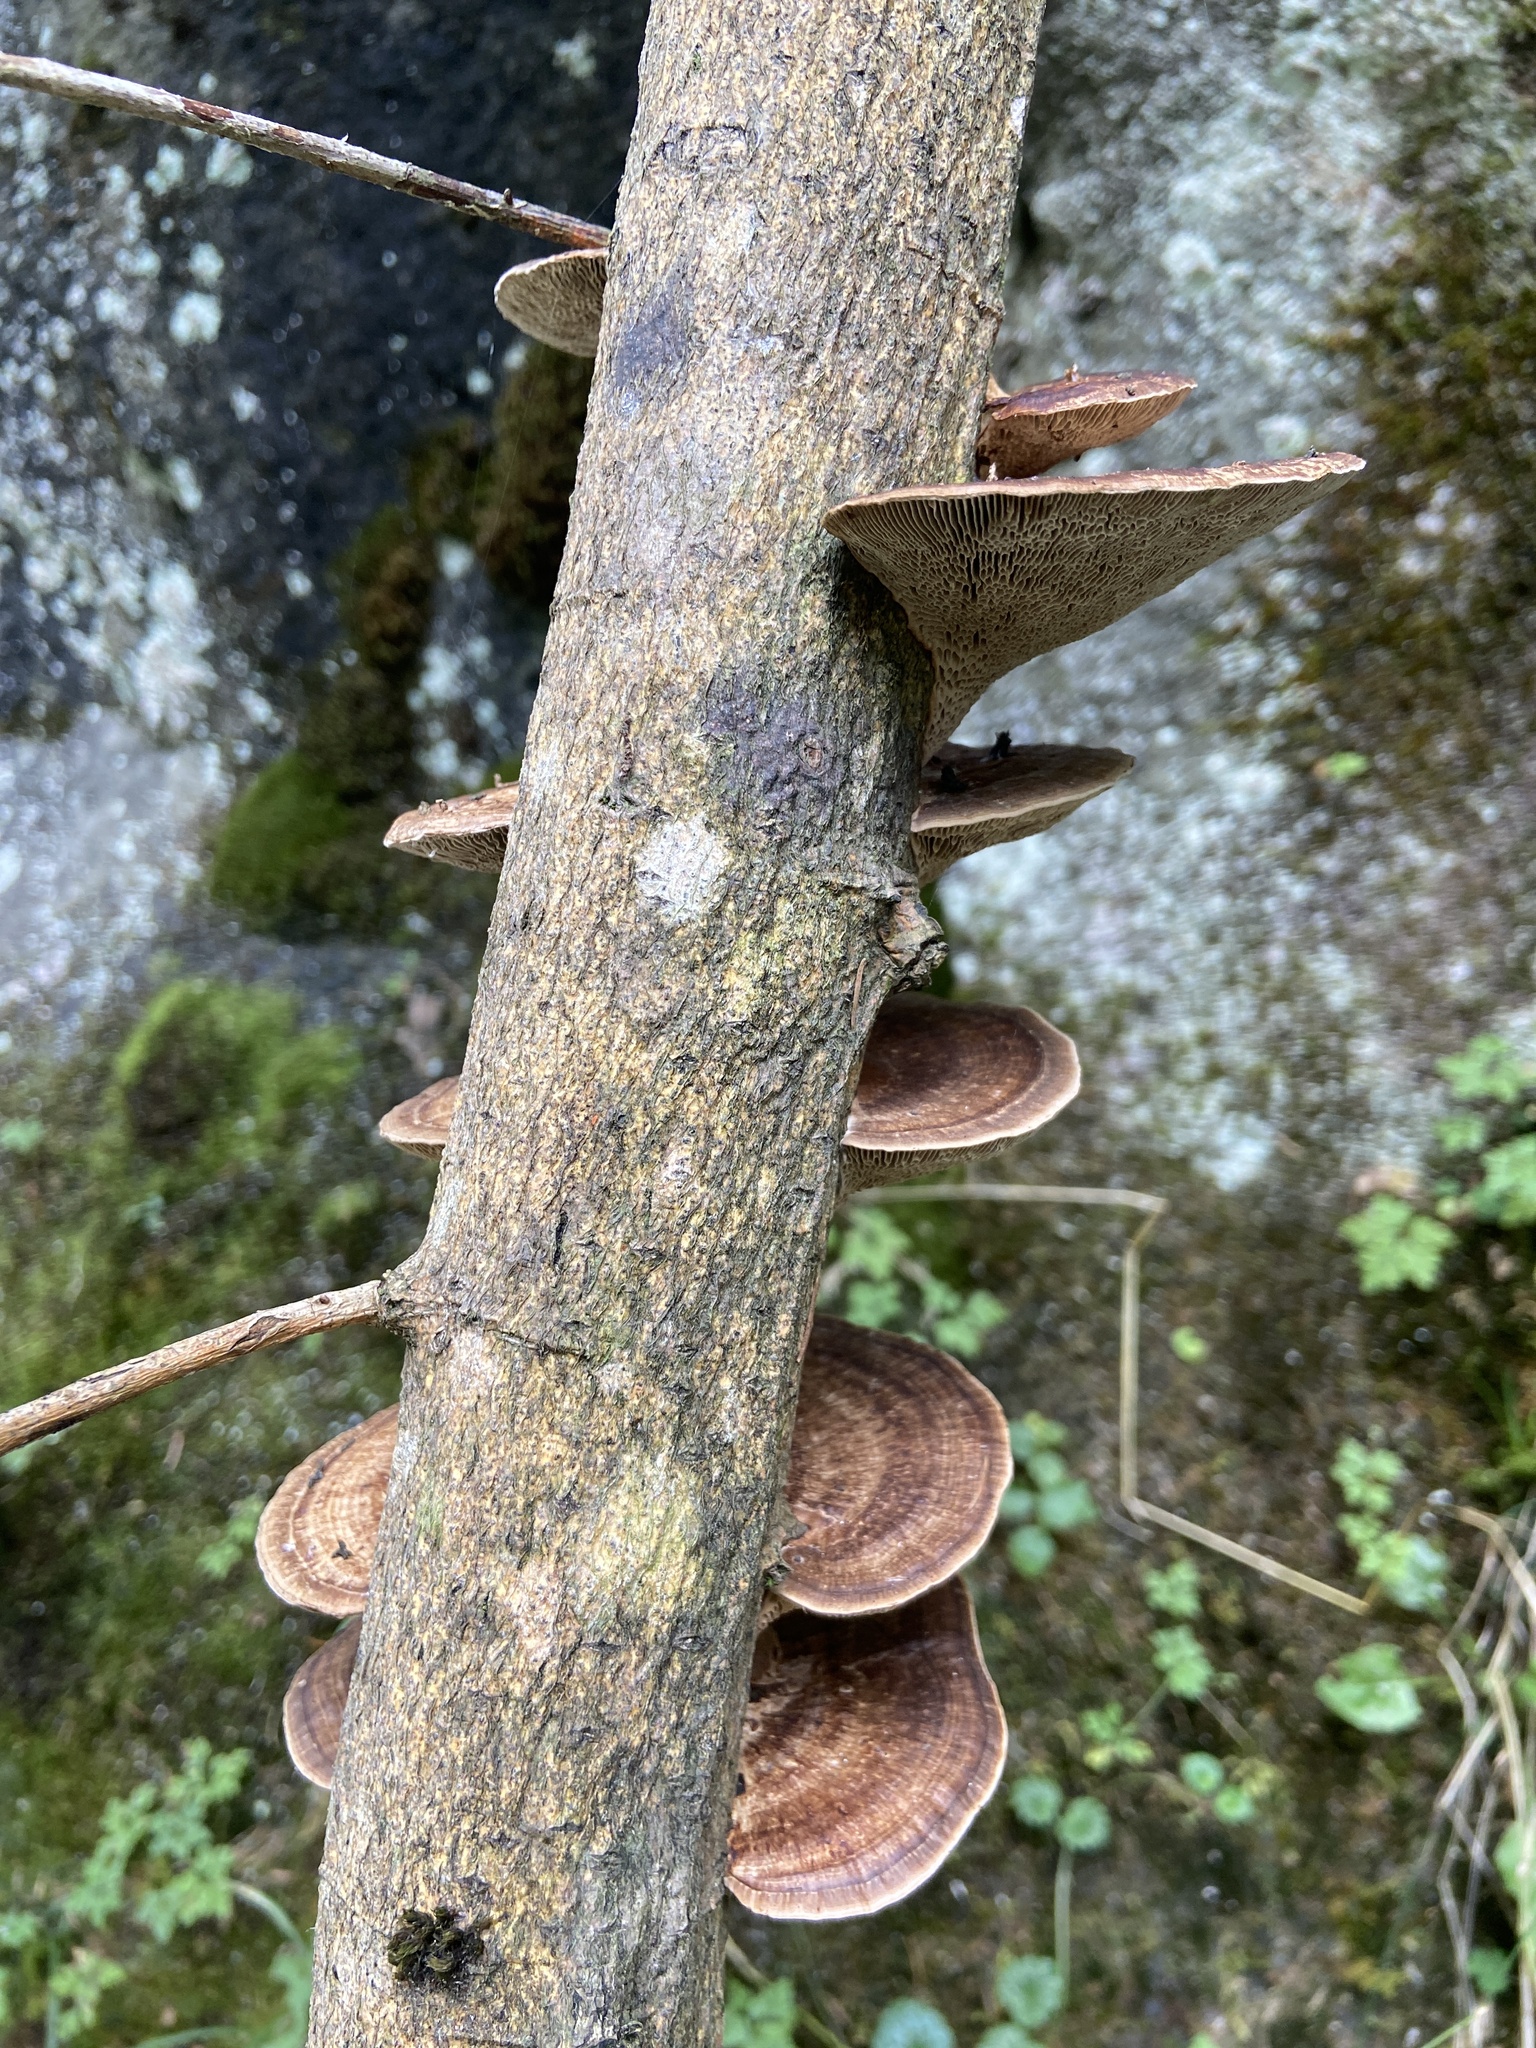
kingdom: Fungi
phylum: Basidiomycota
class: Agaricomycetes
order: Polyporales
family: Polyporaceae
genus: Daedaleopsis
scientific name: Daedaleopsis confragosa
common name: Blushing bracket
